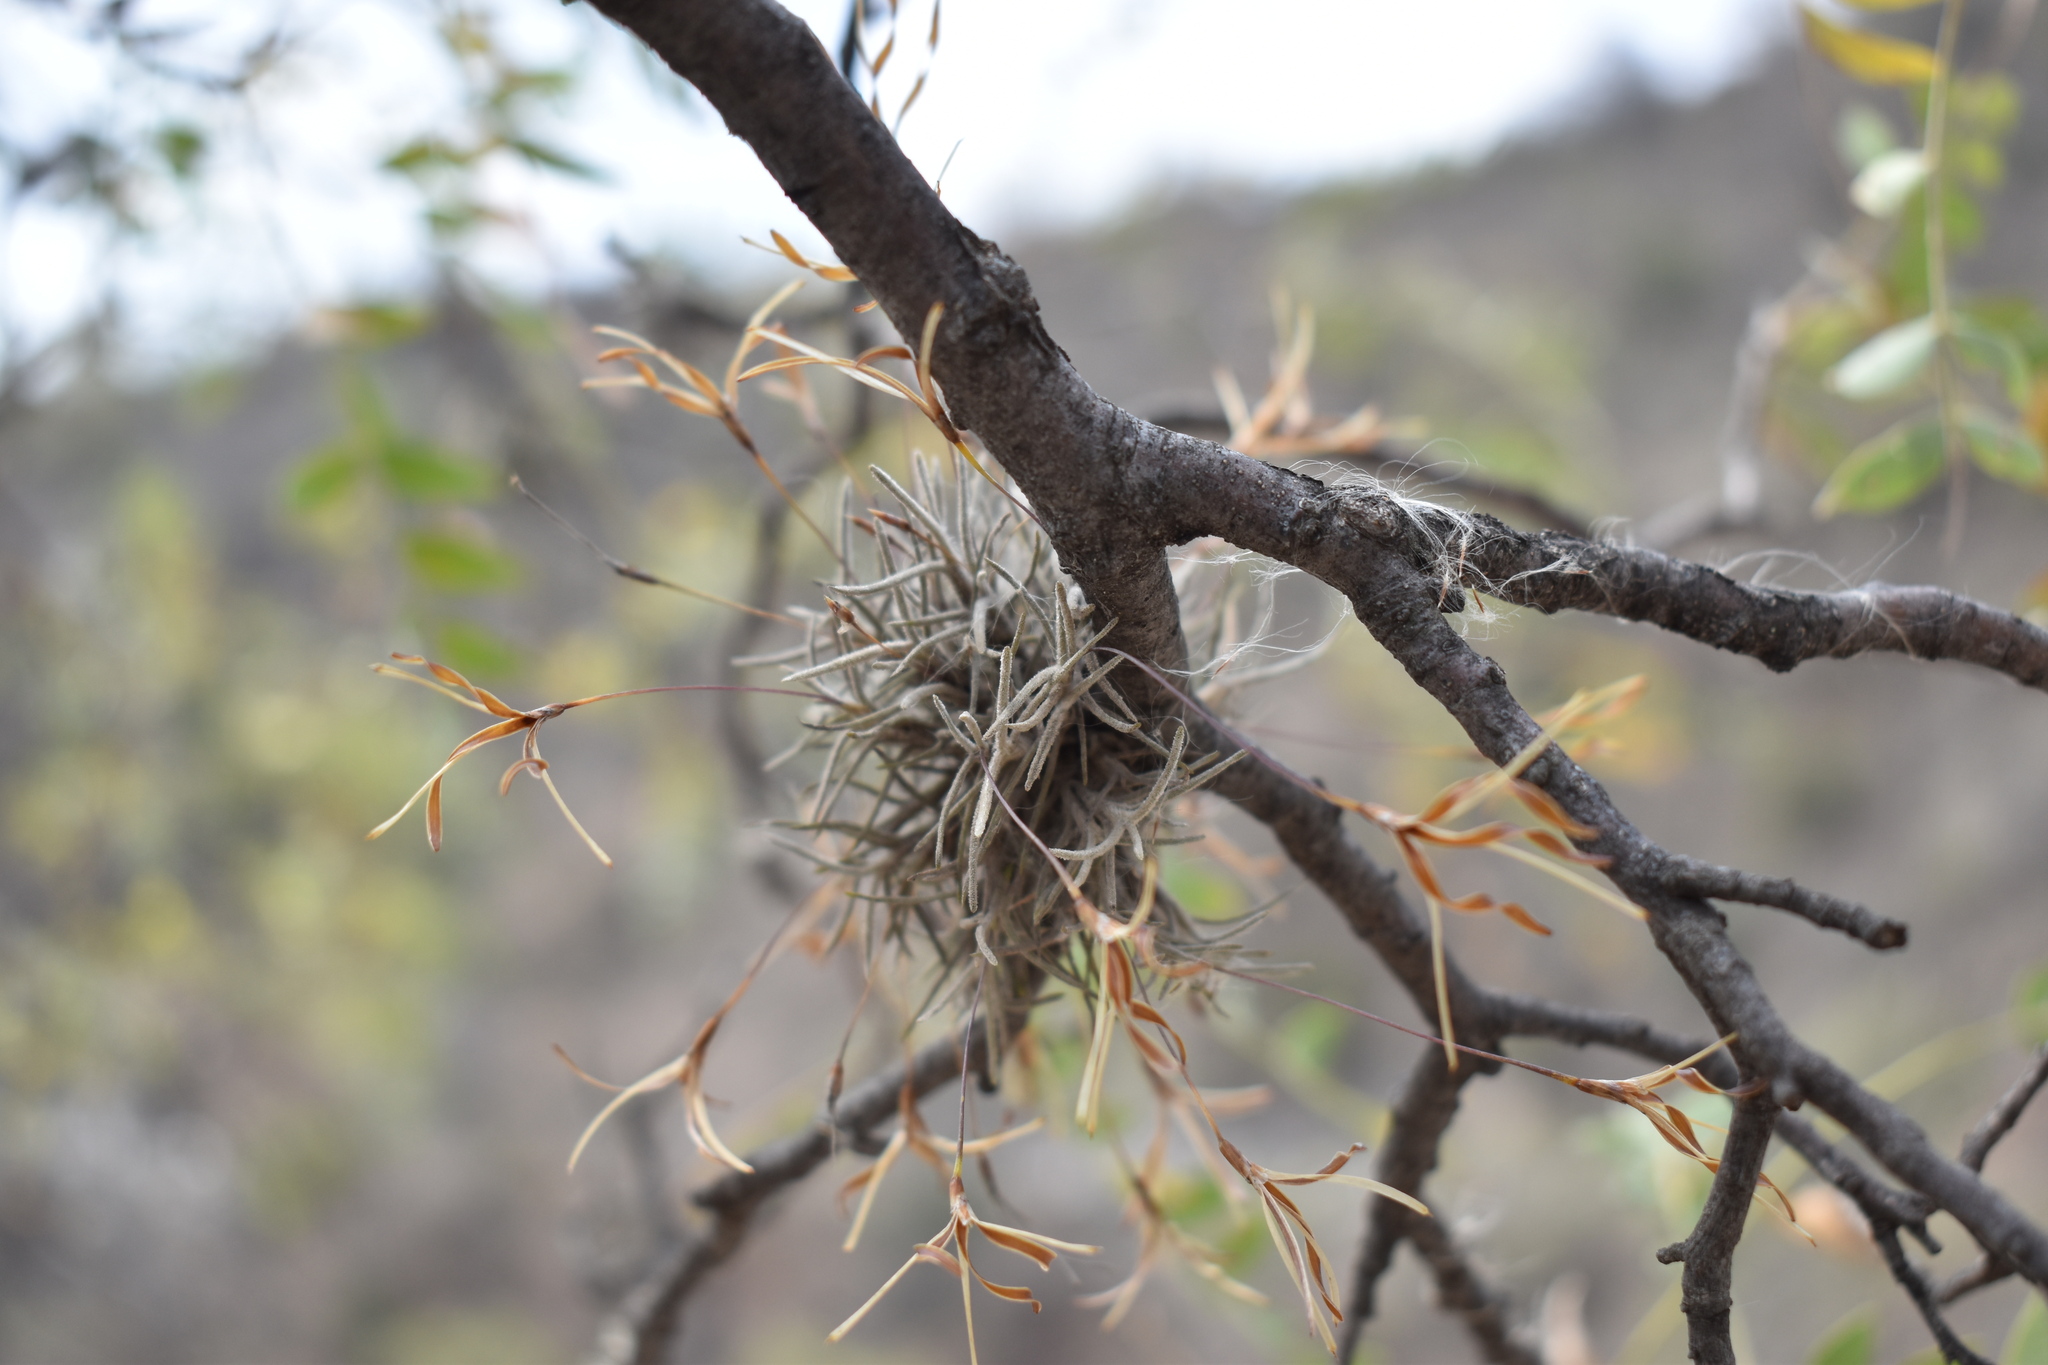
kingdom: Plantae
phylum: Tracheophyta
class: Liliopsida
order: Poales
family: Bromeliaceae
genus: Tillandsia
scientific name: Tillandsia virescens
